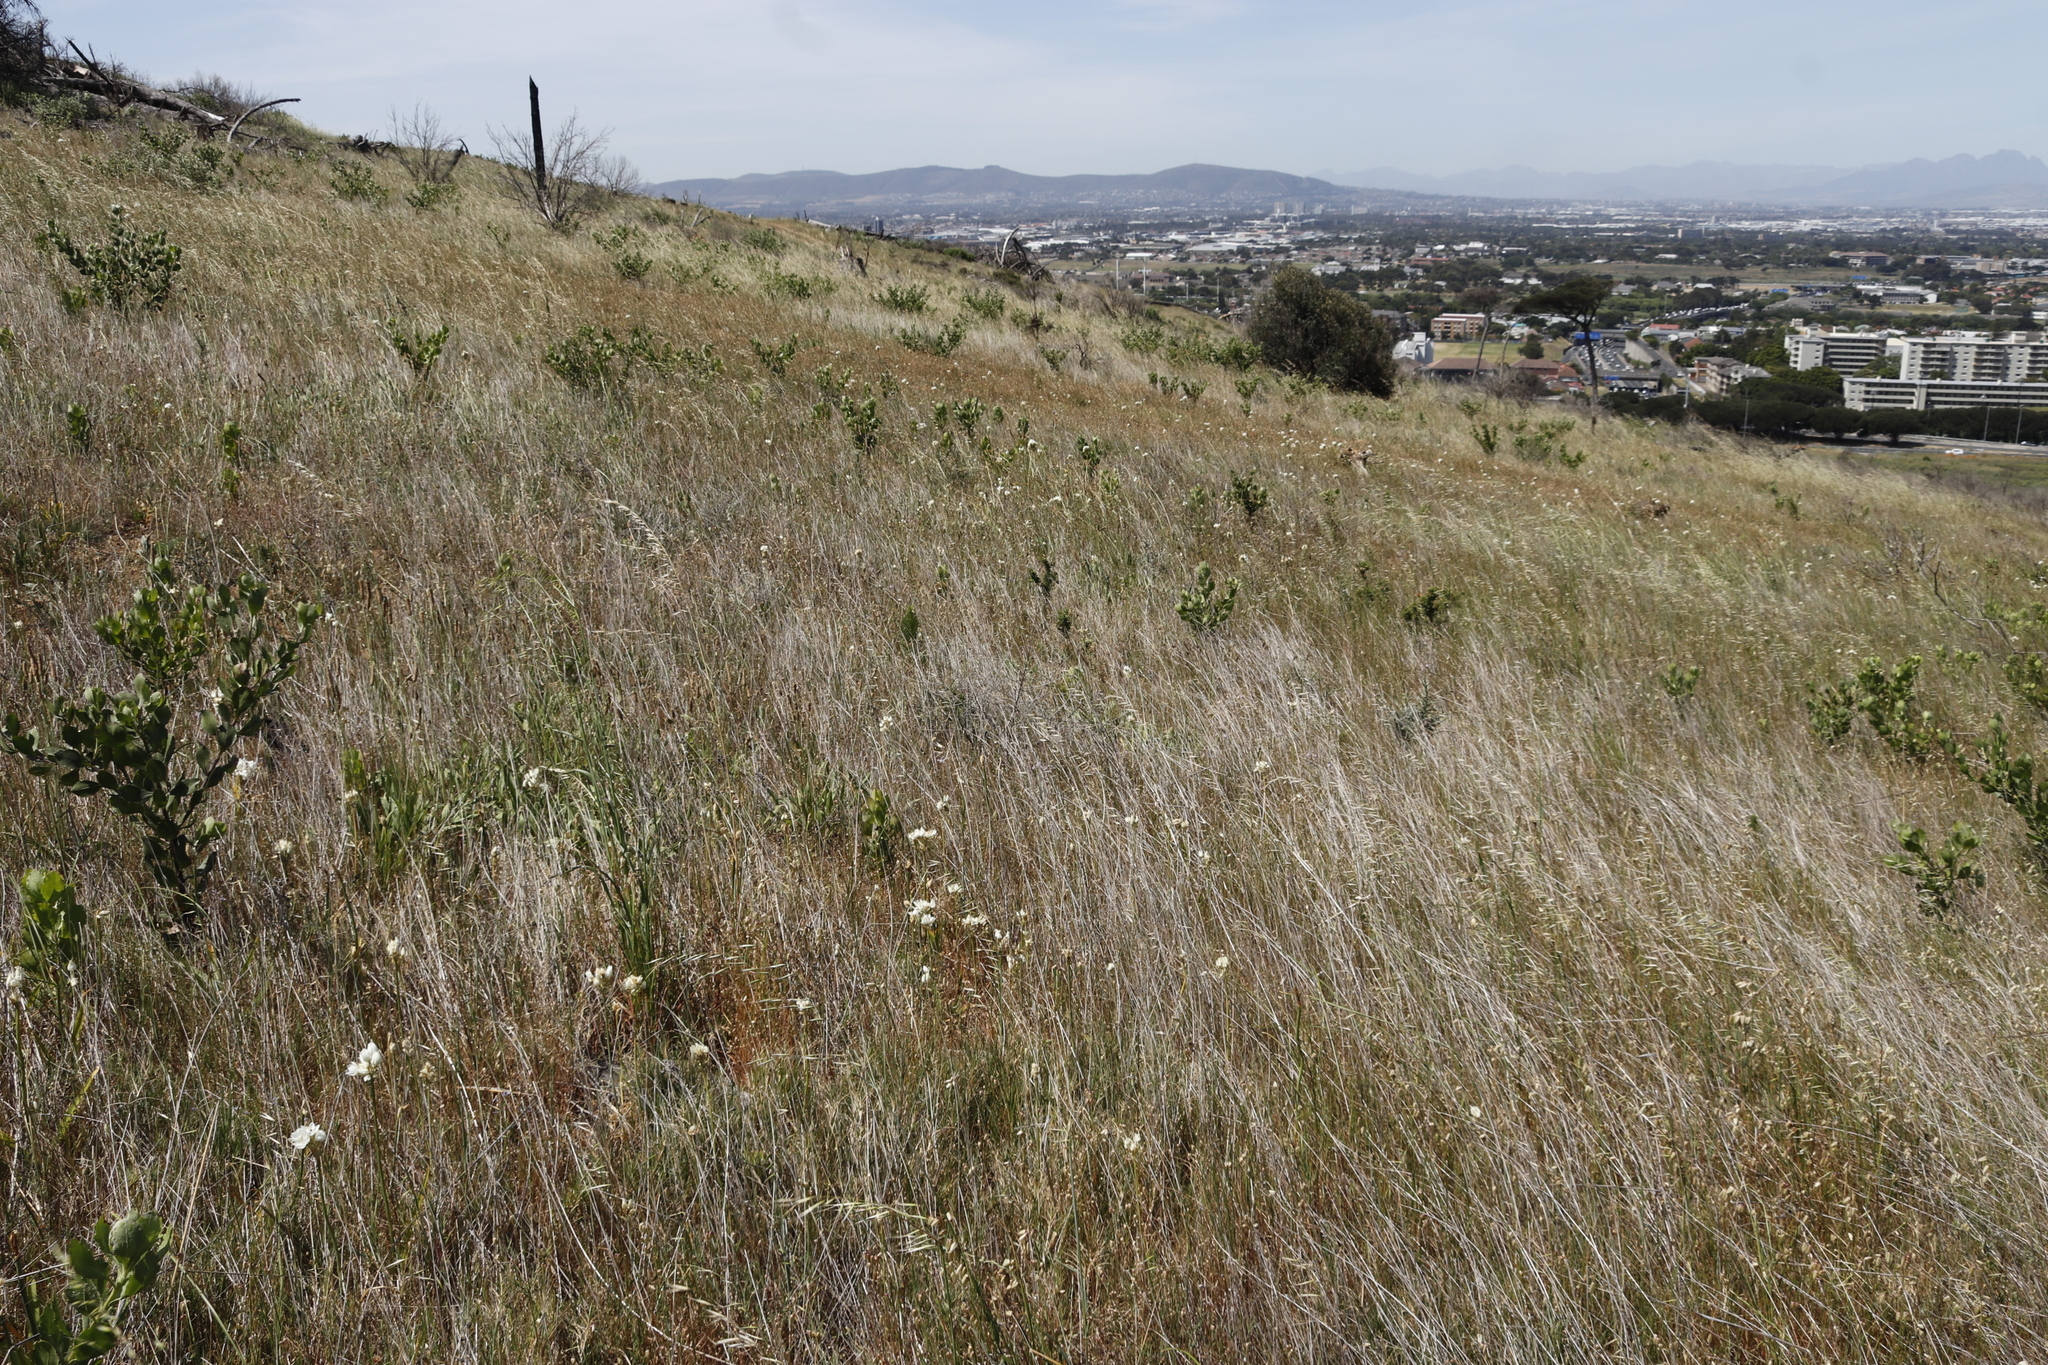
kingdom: Plantae
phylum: Tracheophyta
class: Liliopsida
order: Poales
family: Poaceae
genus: Avena
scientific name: Avena fatua
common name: Wild oat
